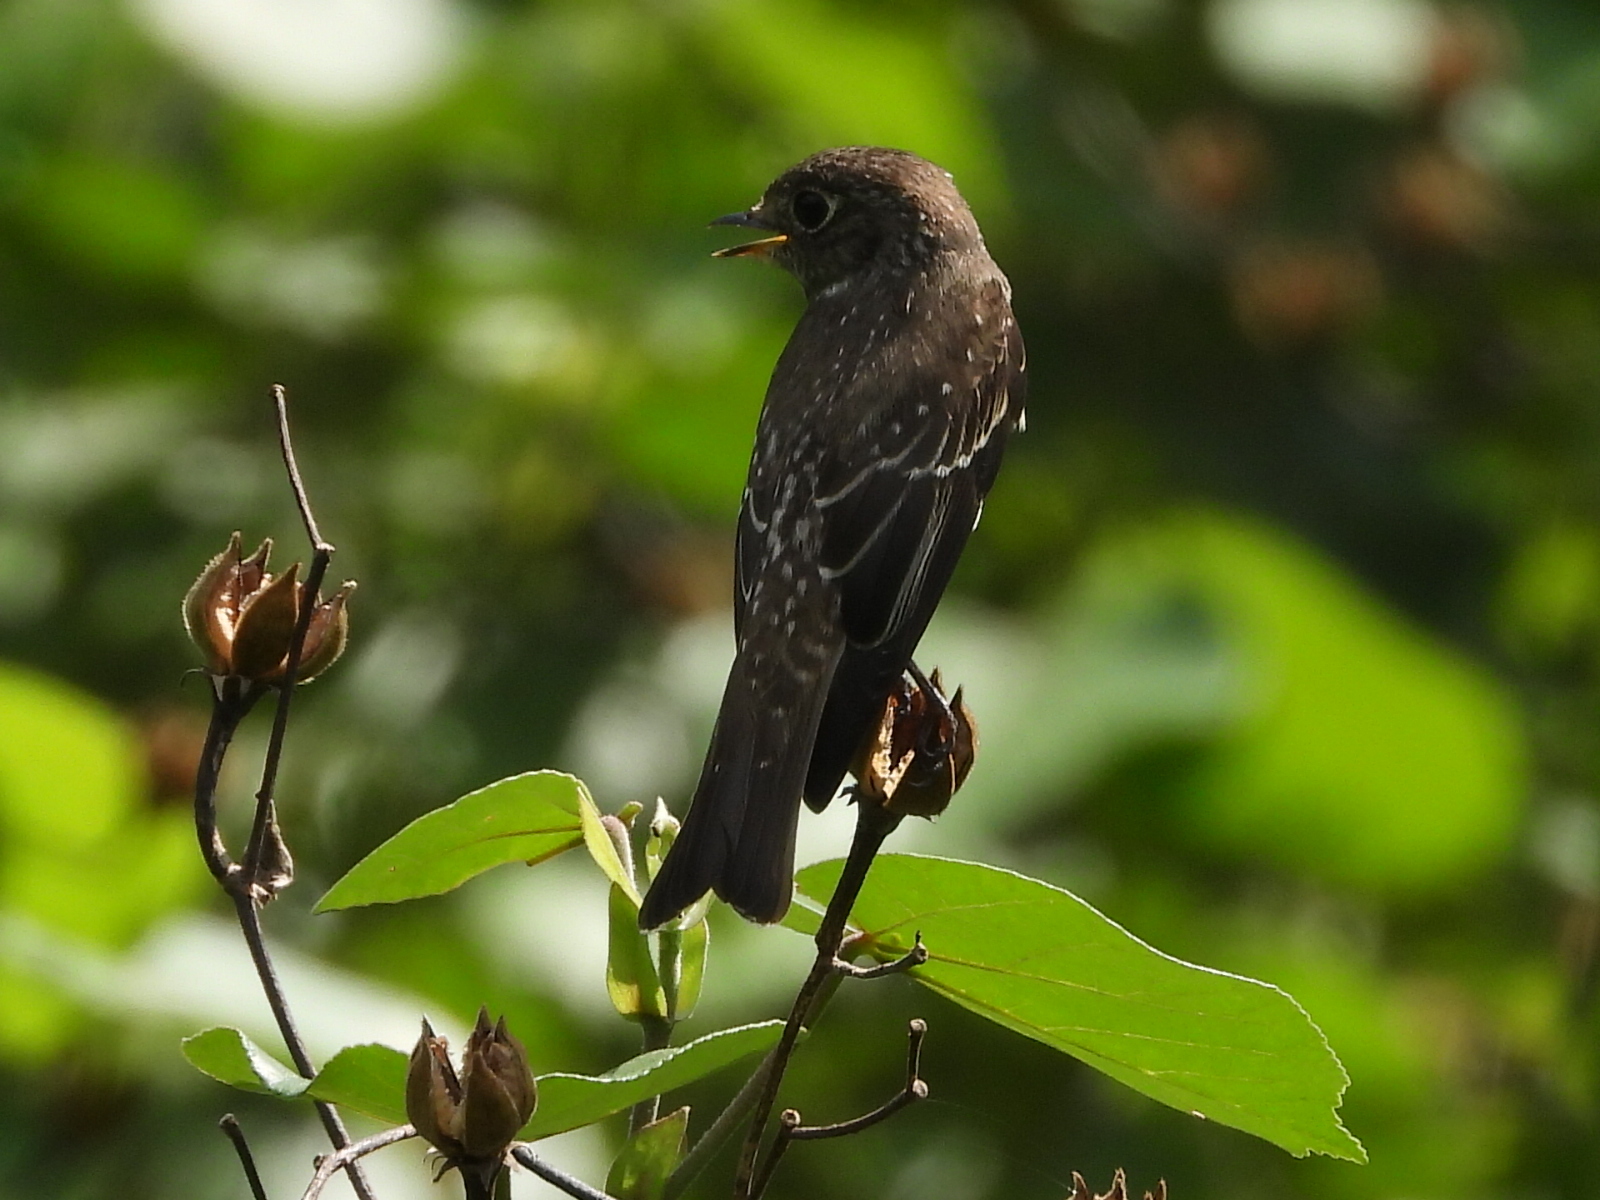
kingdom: Animalia
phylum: Chordata
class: Aves
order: Passeriformes
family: Muscicapidae
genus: Muscicapa
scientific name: Muscicapa sibirica
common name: Dark-sided flycatcher
